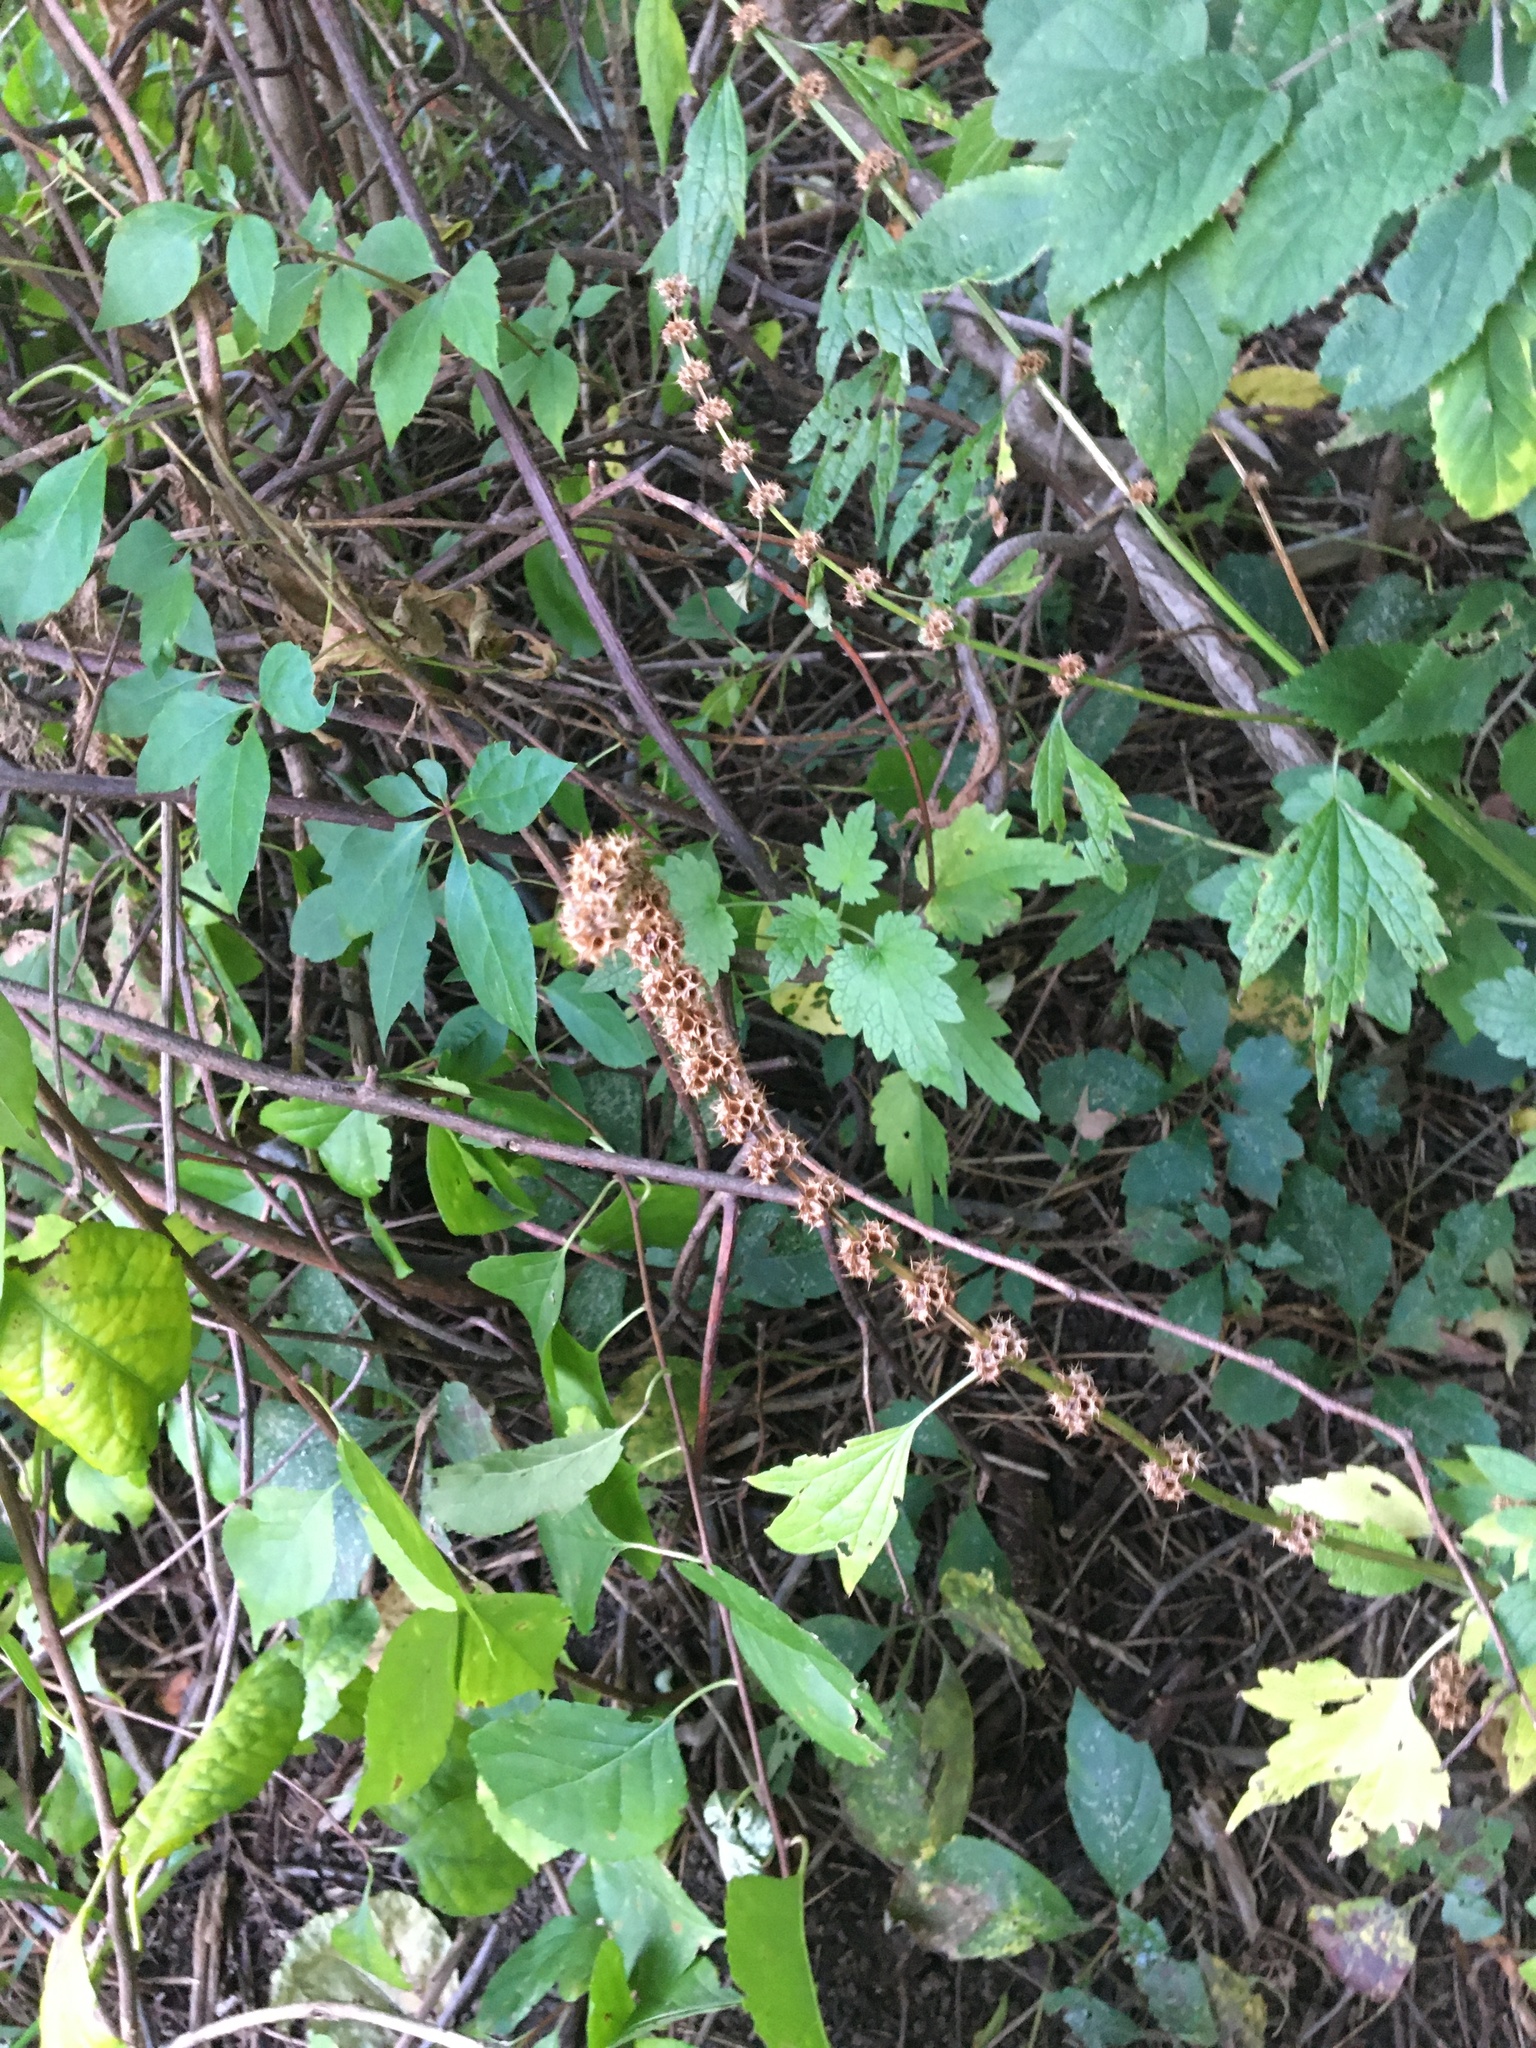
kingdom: Plantae
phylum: Tracheophyta
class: Magnoliopsida
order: Lamiales
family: Lamiaceae
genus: Leonurus
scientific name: Leonurus cardiaca
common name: Motherwort
